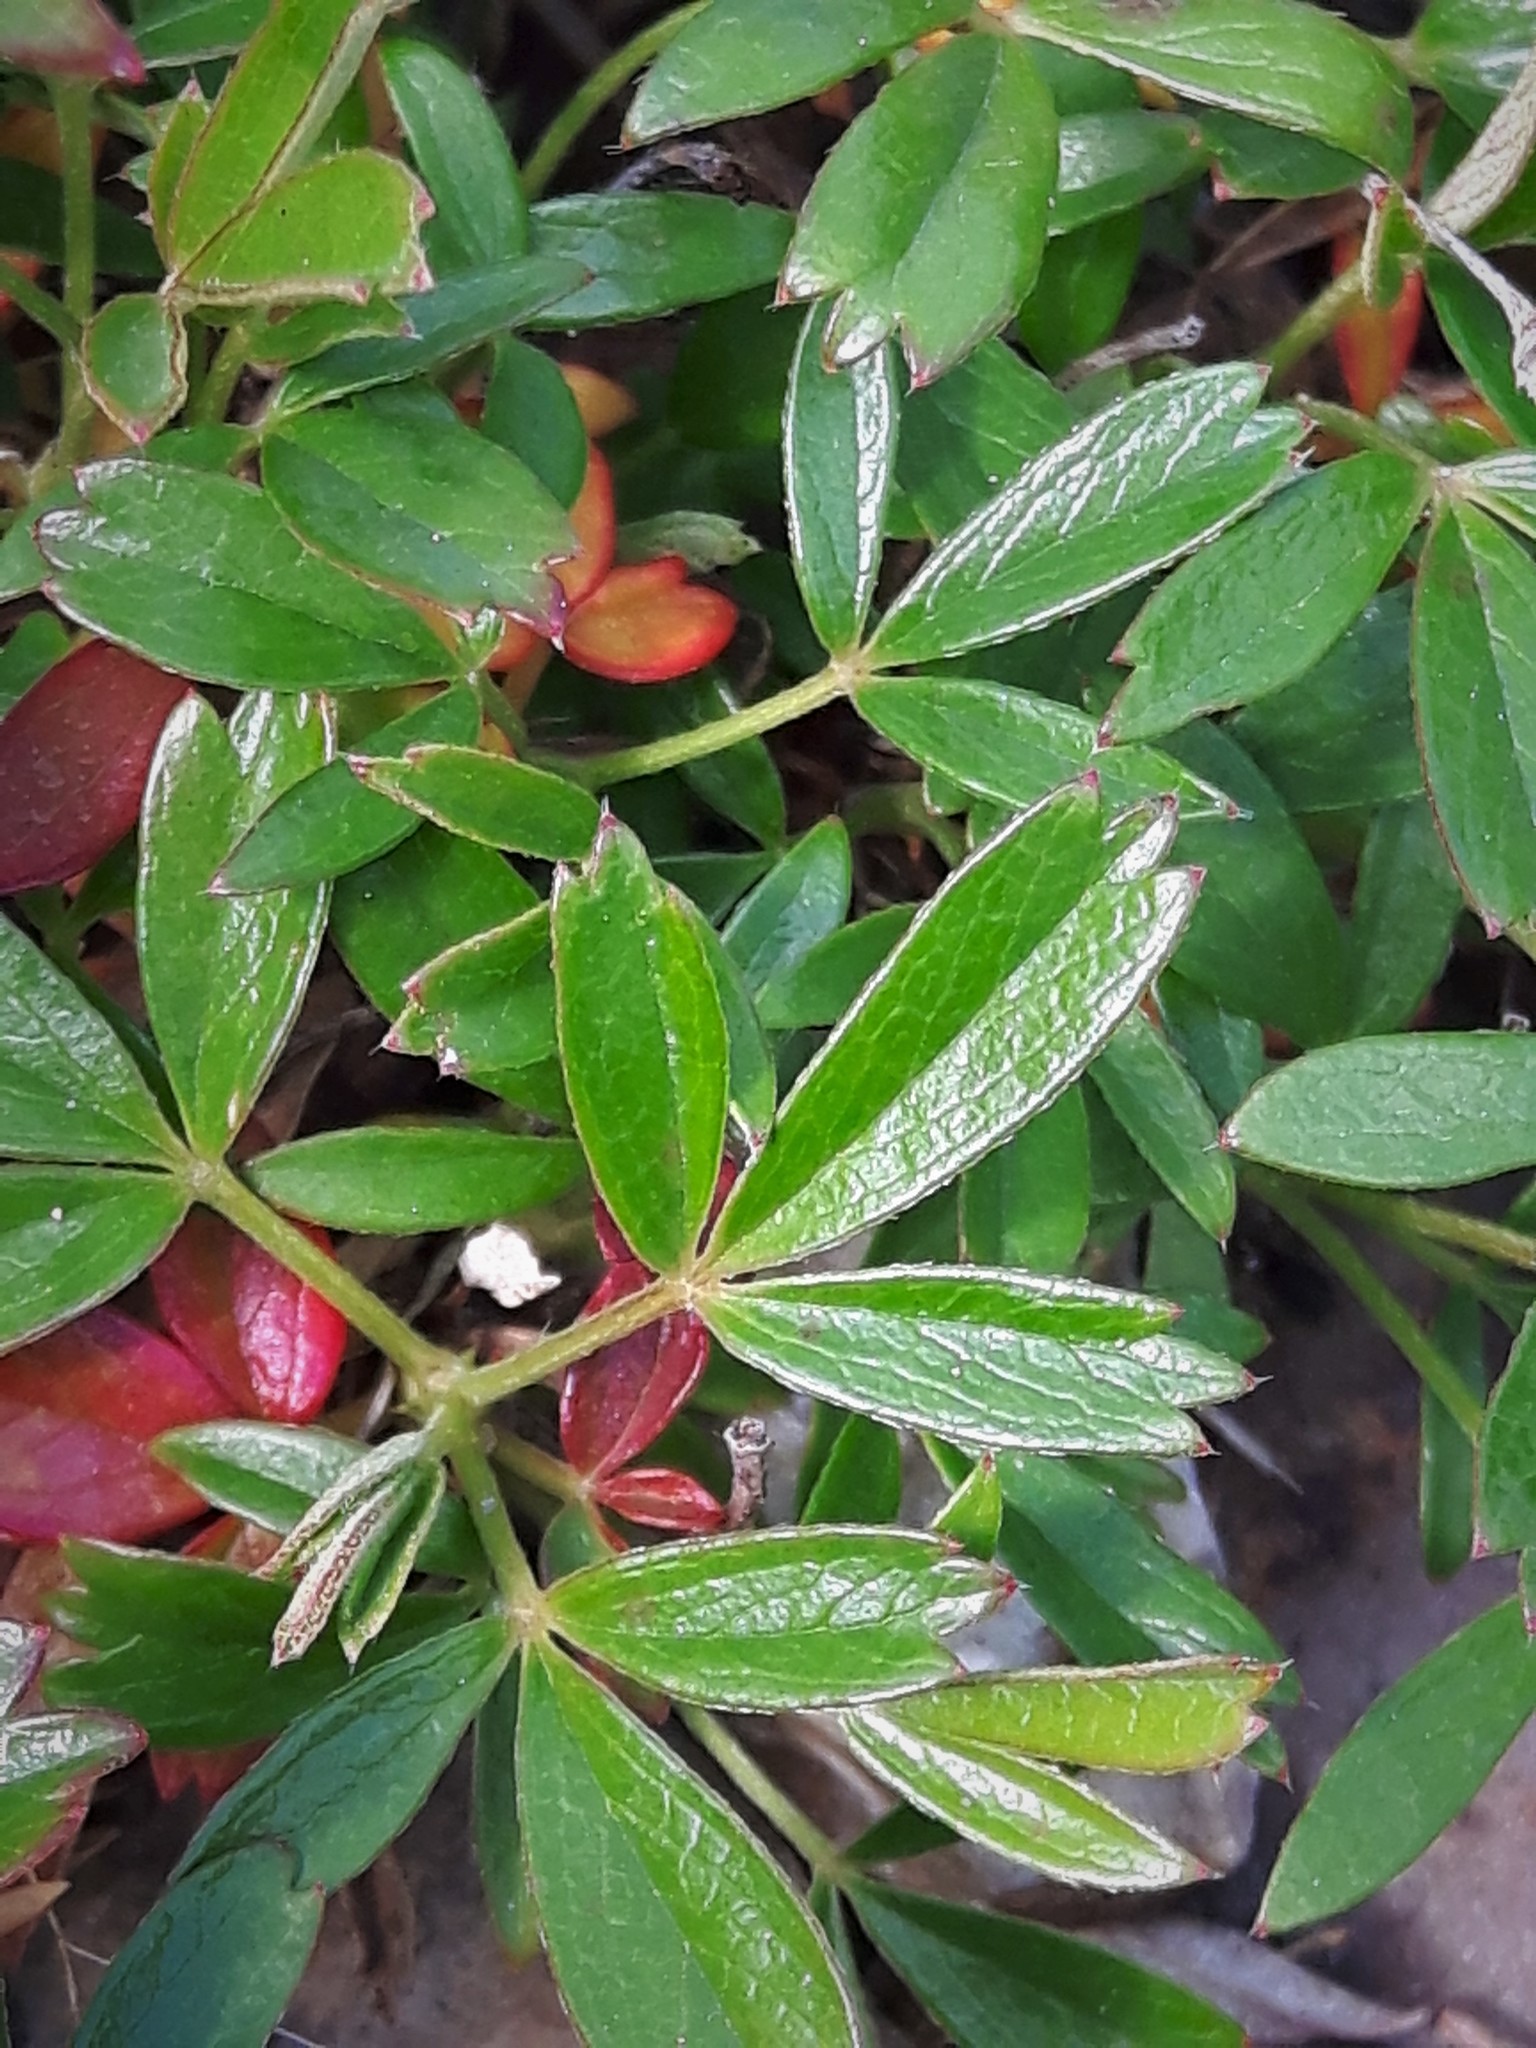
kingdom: Plantae
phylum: Tracheophyta
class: Magnoliopsida
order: Rosales
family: Rosaceae
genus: Sibbaldia
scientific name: Sibbaldia tridentata
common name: Three-toothed cinquefoil
